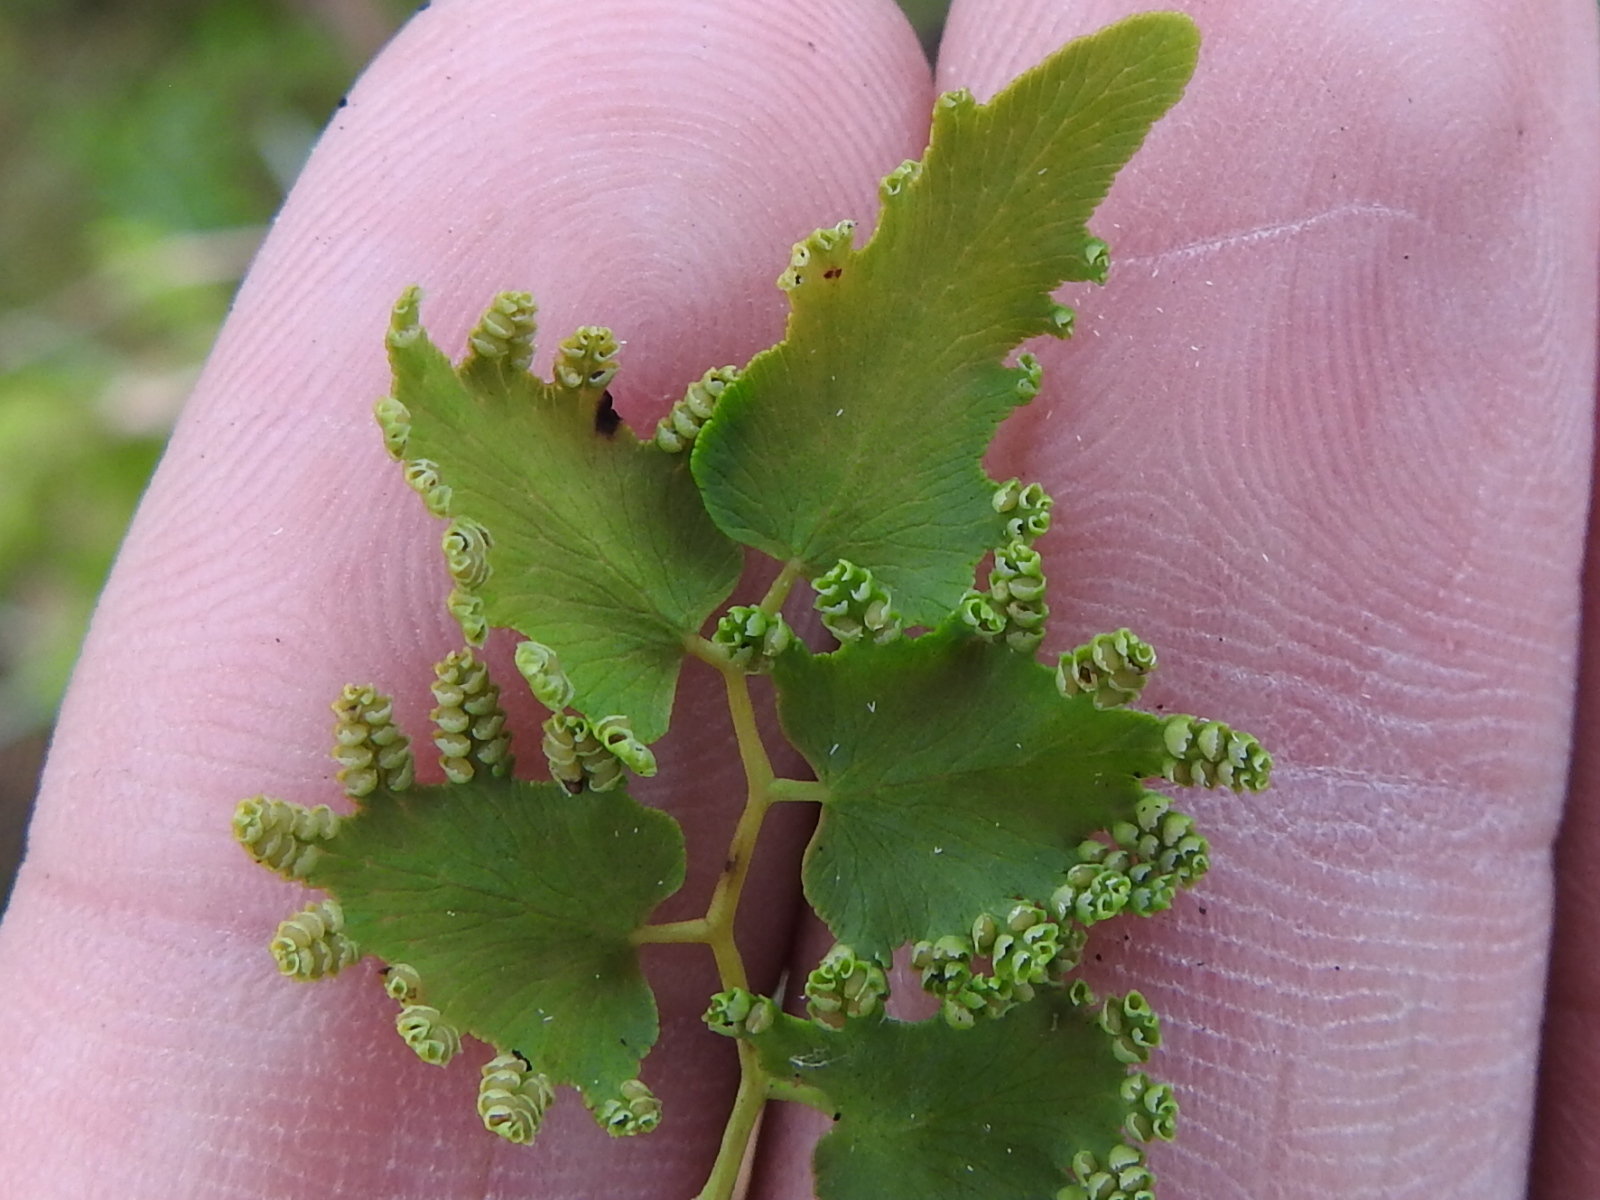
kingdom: Plantae
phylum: Tracheophyta
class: Polypodiopsida
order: Schizaeales
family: Lygodiaceae
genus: Lygodium
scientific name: Lygodium microphyllum
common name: Small-leaf climbing fern
